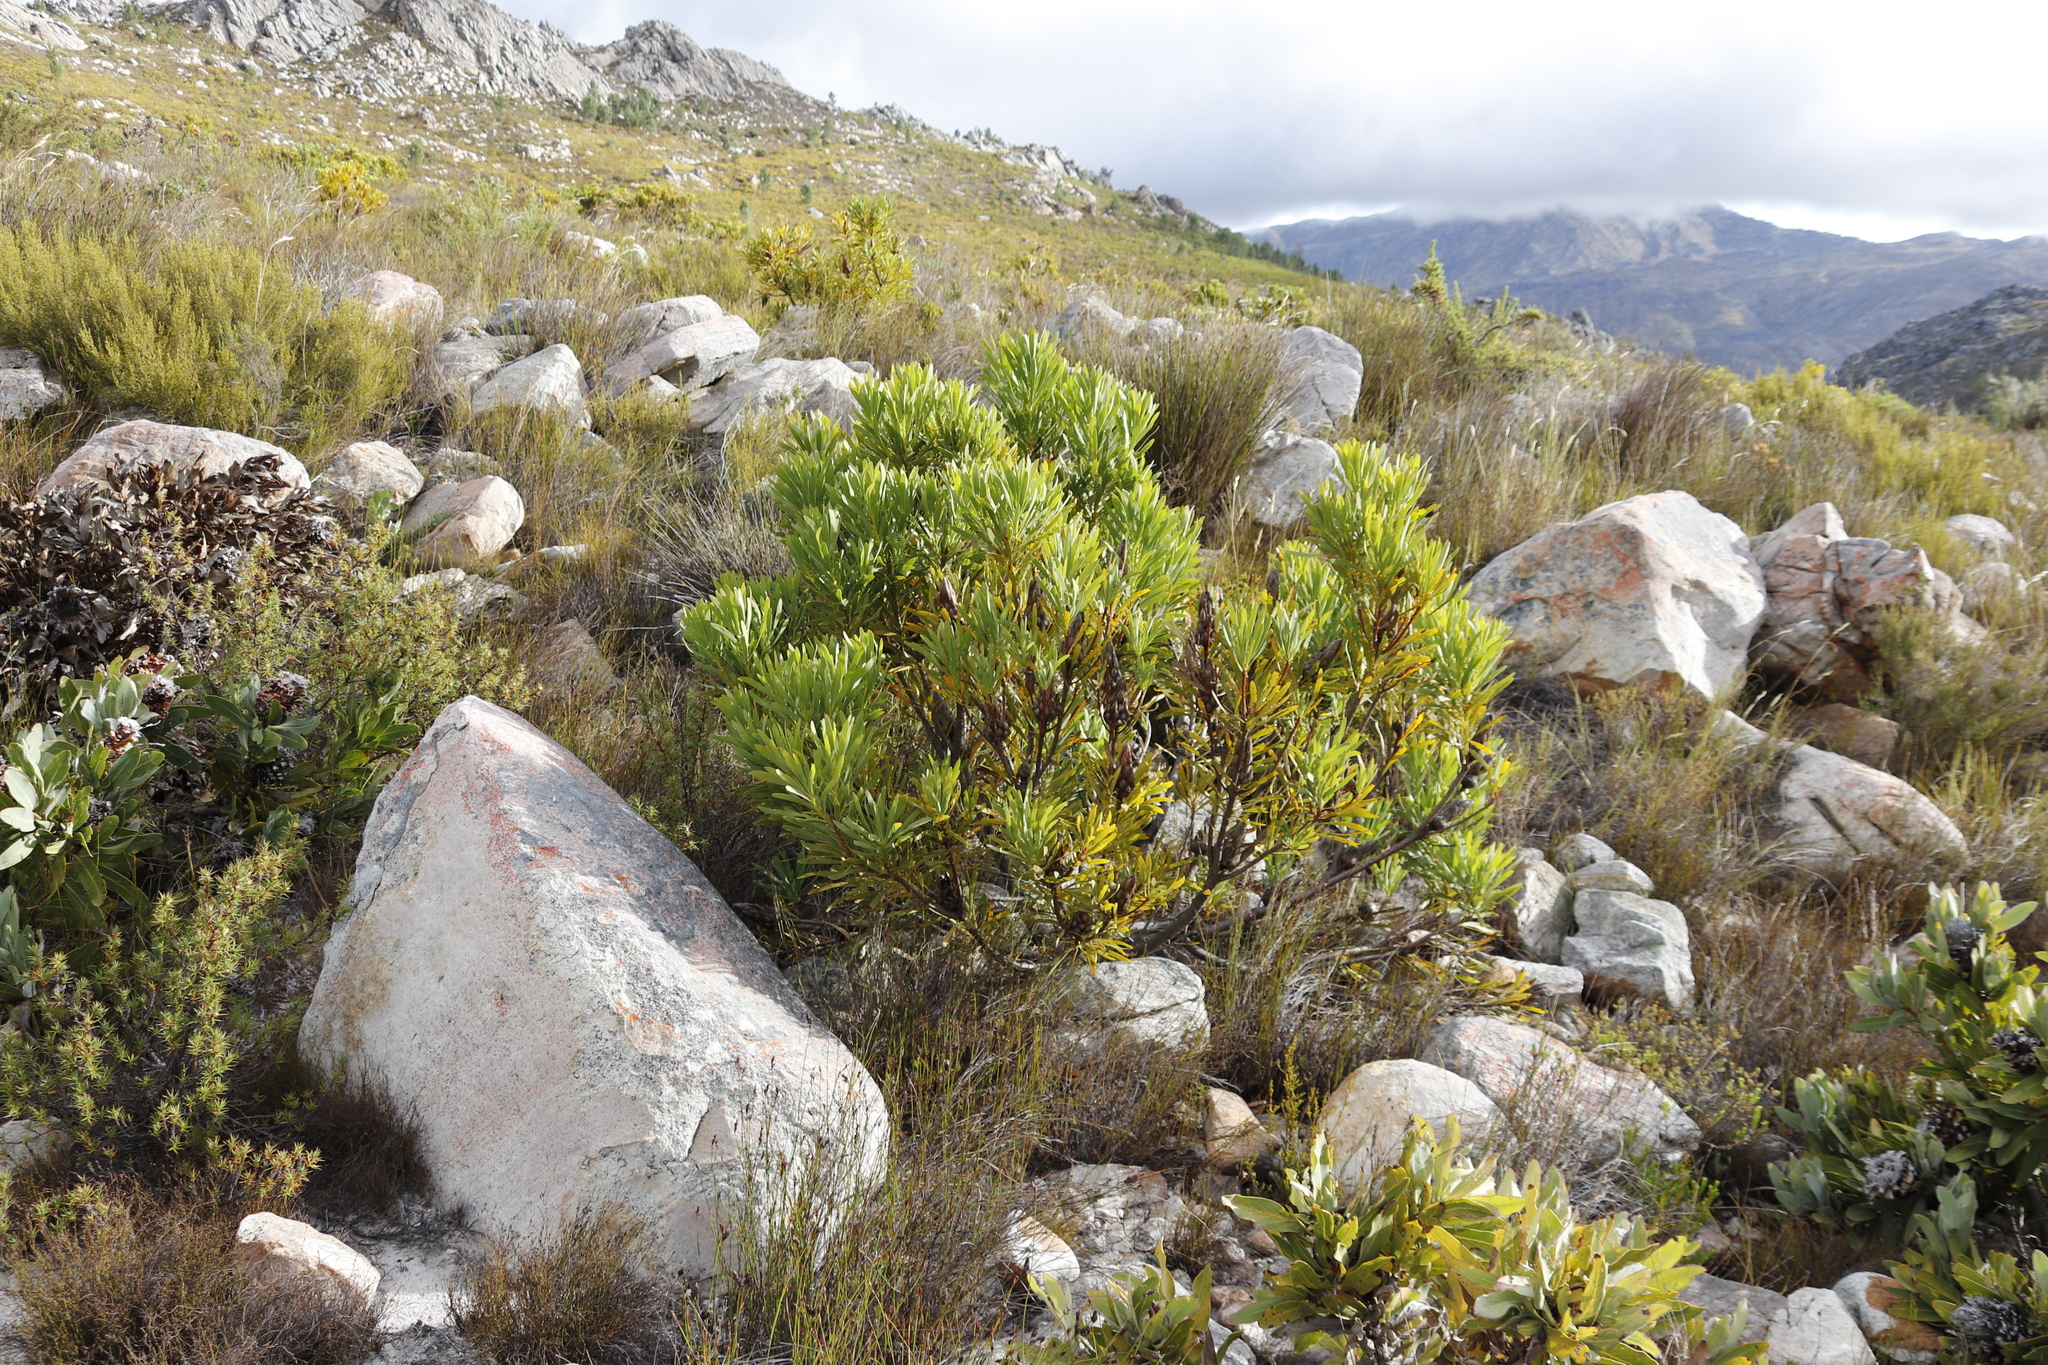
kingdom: Plantae
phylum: Tracheophyta
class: Magnoliopsida
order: Proteales
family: Proteaceae
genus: Protea
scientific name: Protea repens
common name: Sugarbush
